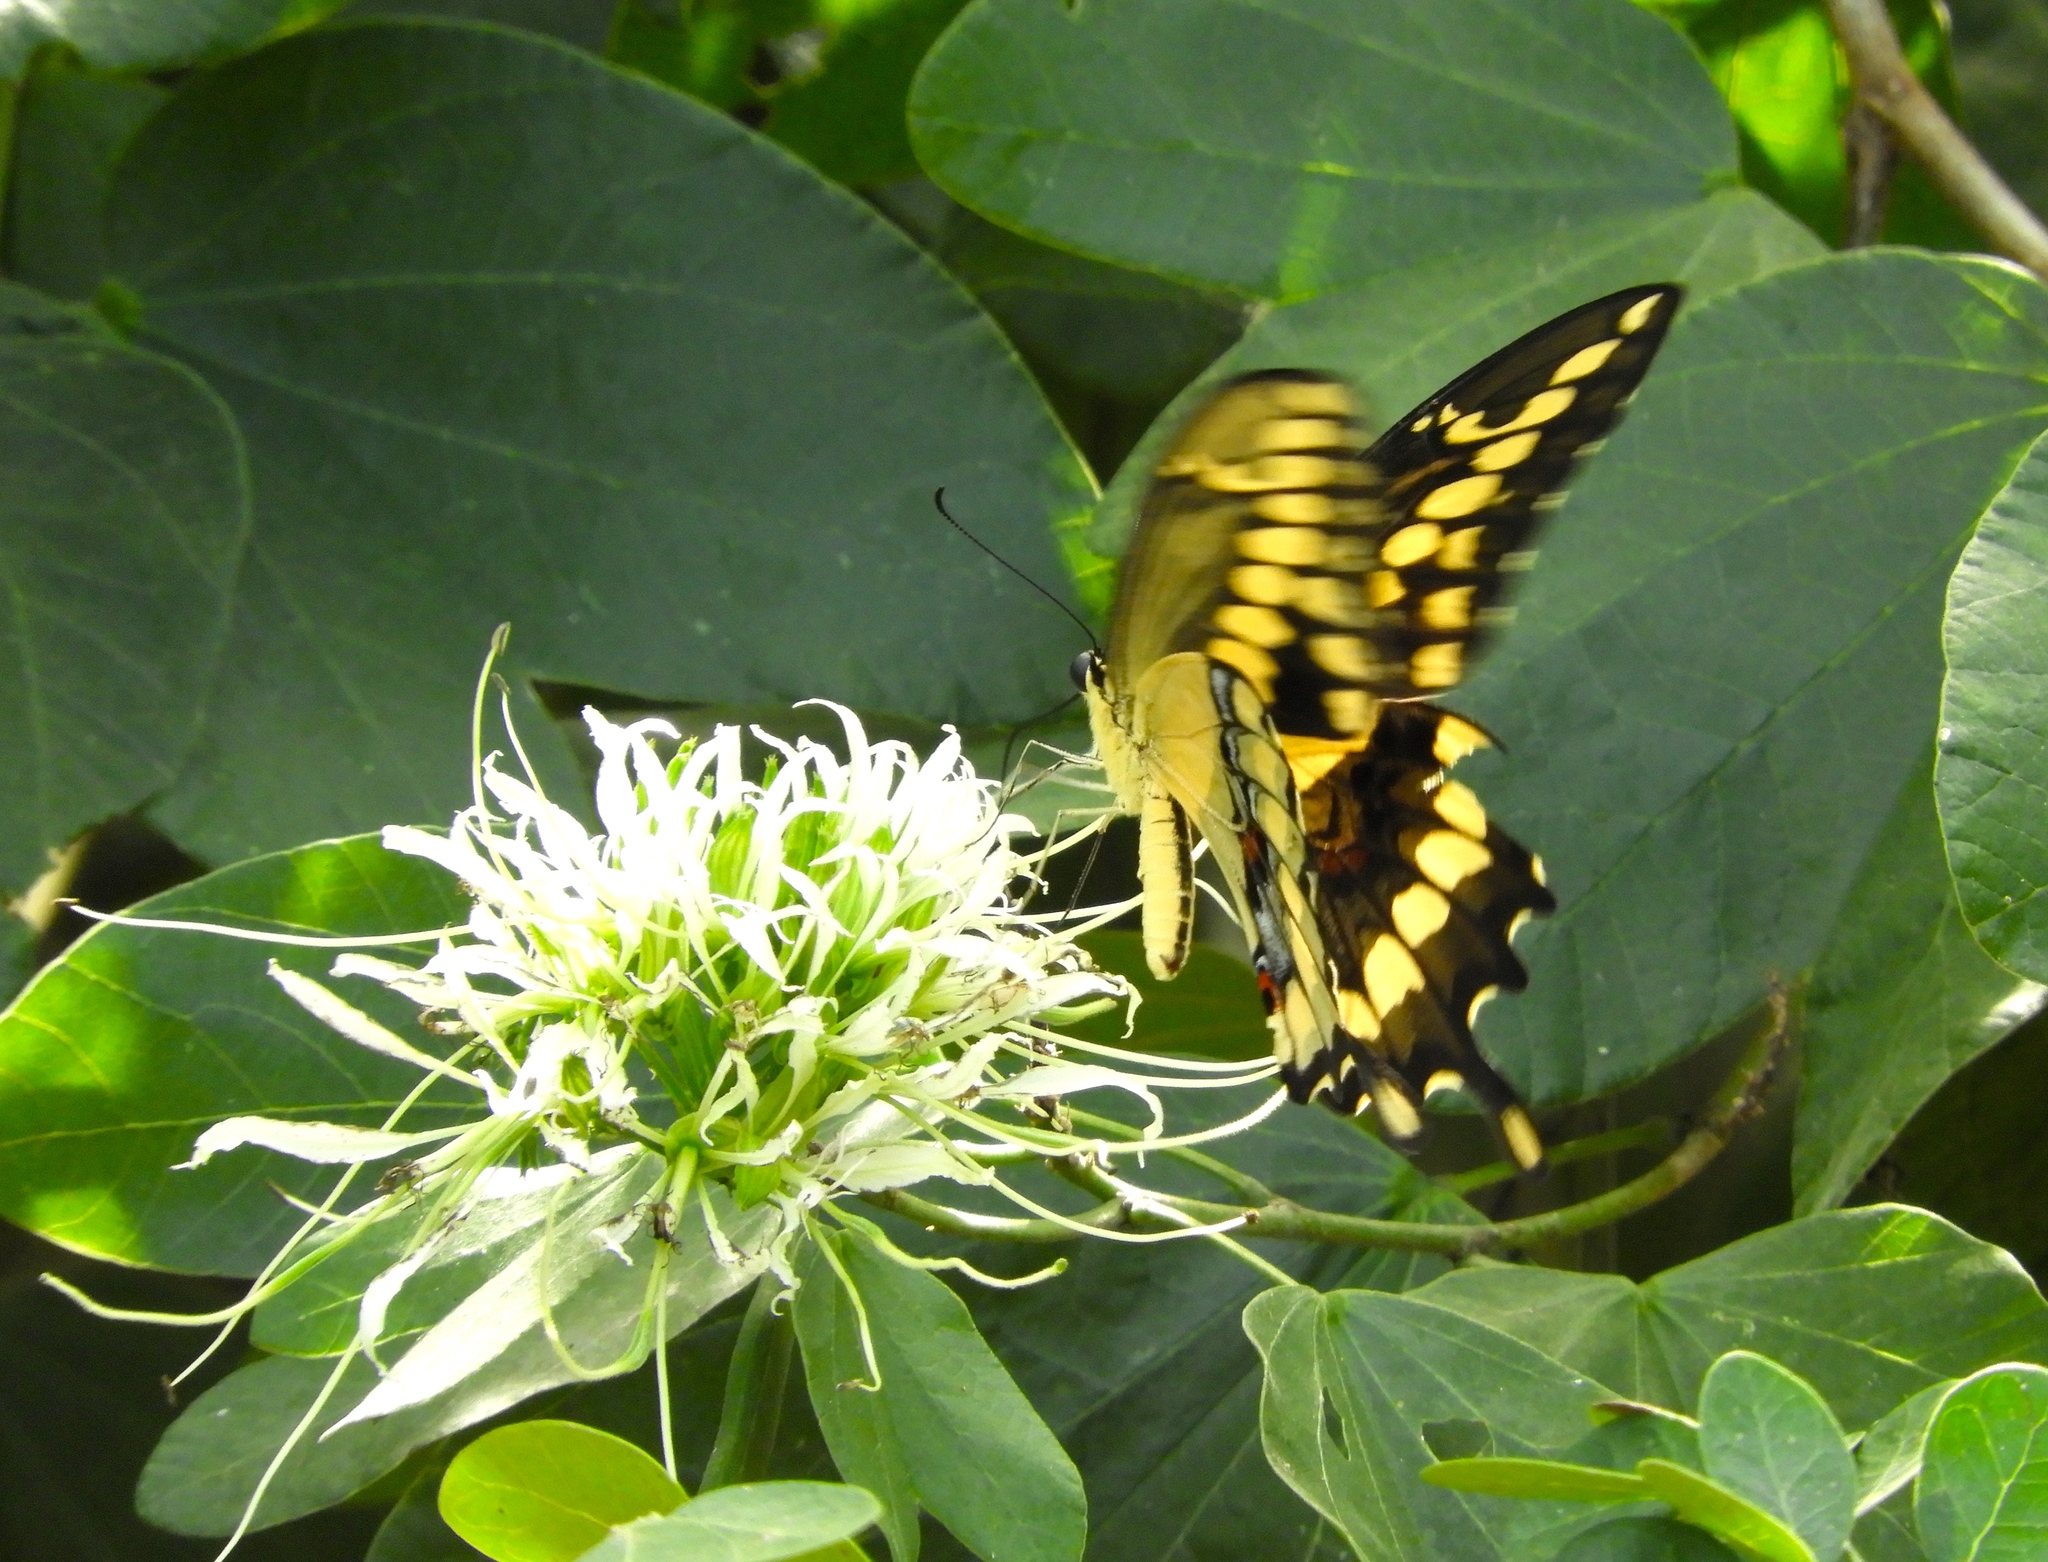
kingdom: Animalia
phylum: Arthropoda
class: Insecta
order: Lepidoptera
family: Papilionidae
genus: Papilio
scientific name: Papilio rumiko
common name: Western giant swallowtail
